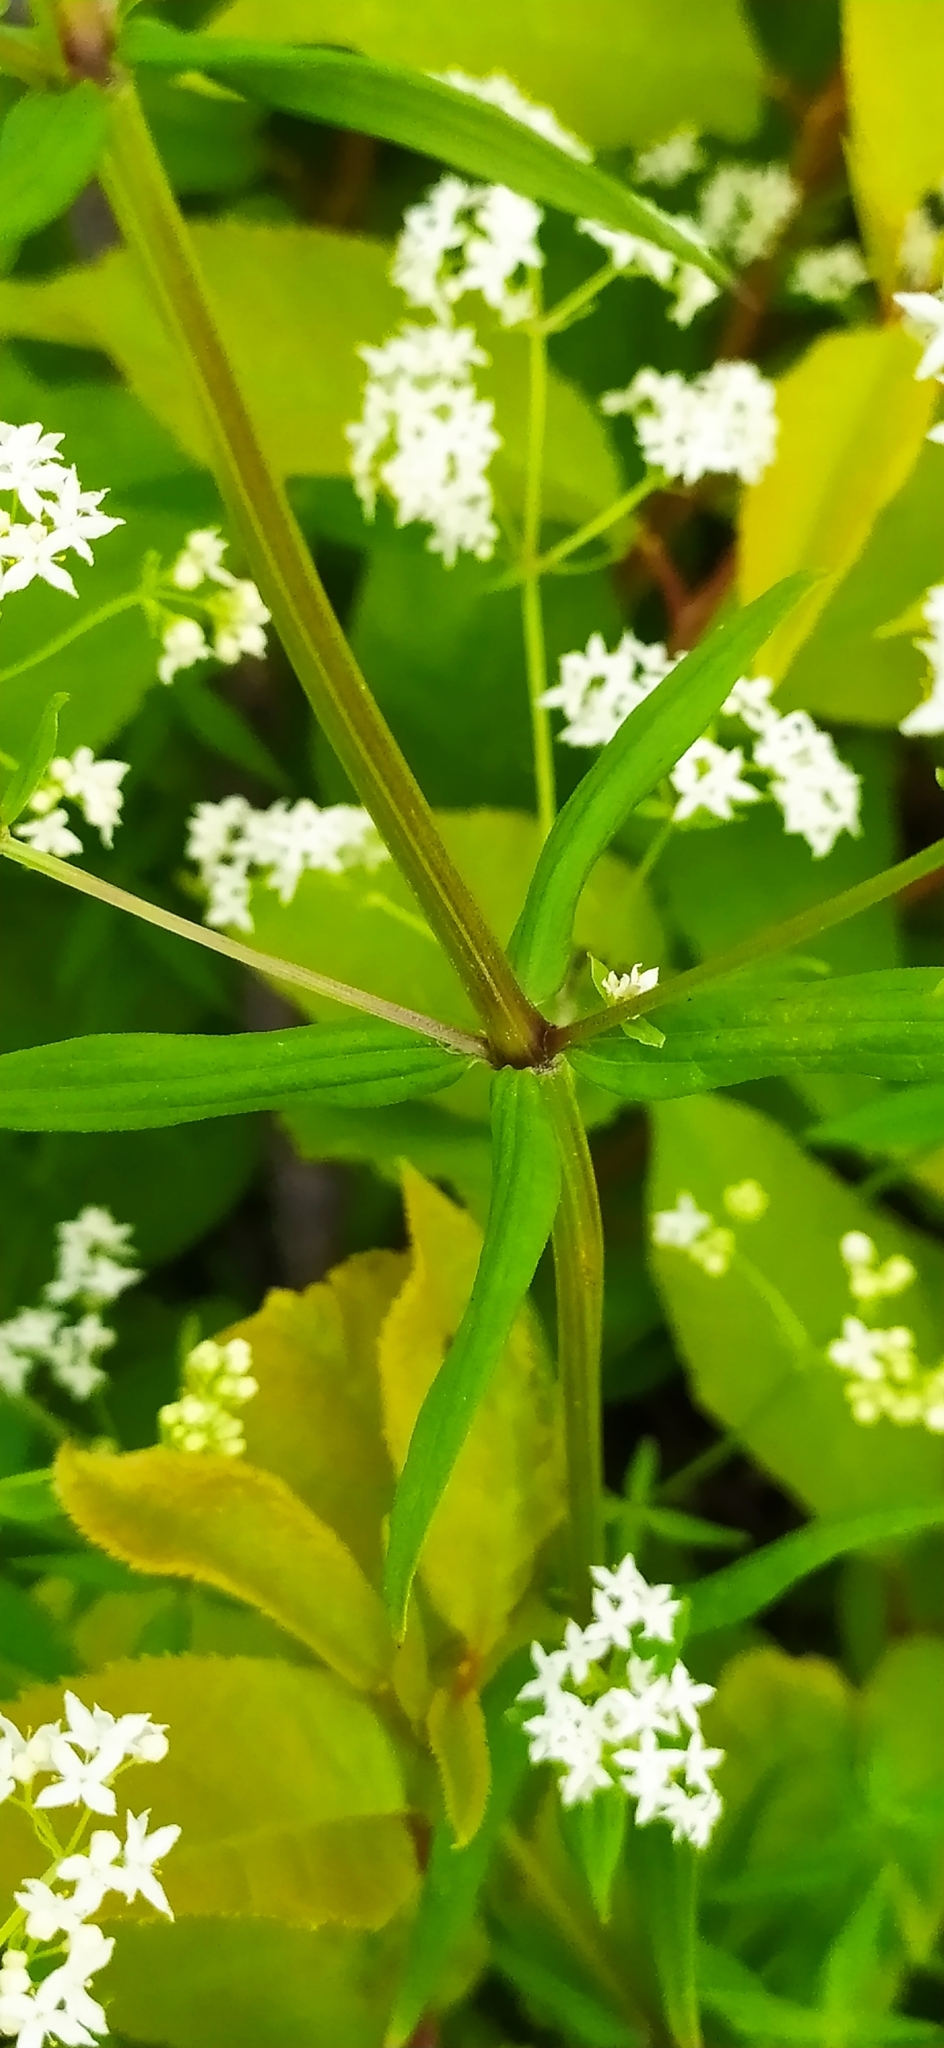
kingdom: Plantae
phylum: Tracheophyta
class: Magnoliopsida
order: Gentianales
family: Rubiaceae
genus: Galium
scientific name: Galium boreale
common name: Northern bedstraw
